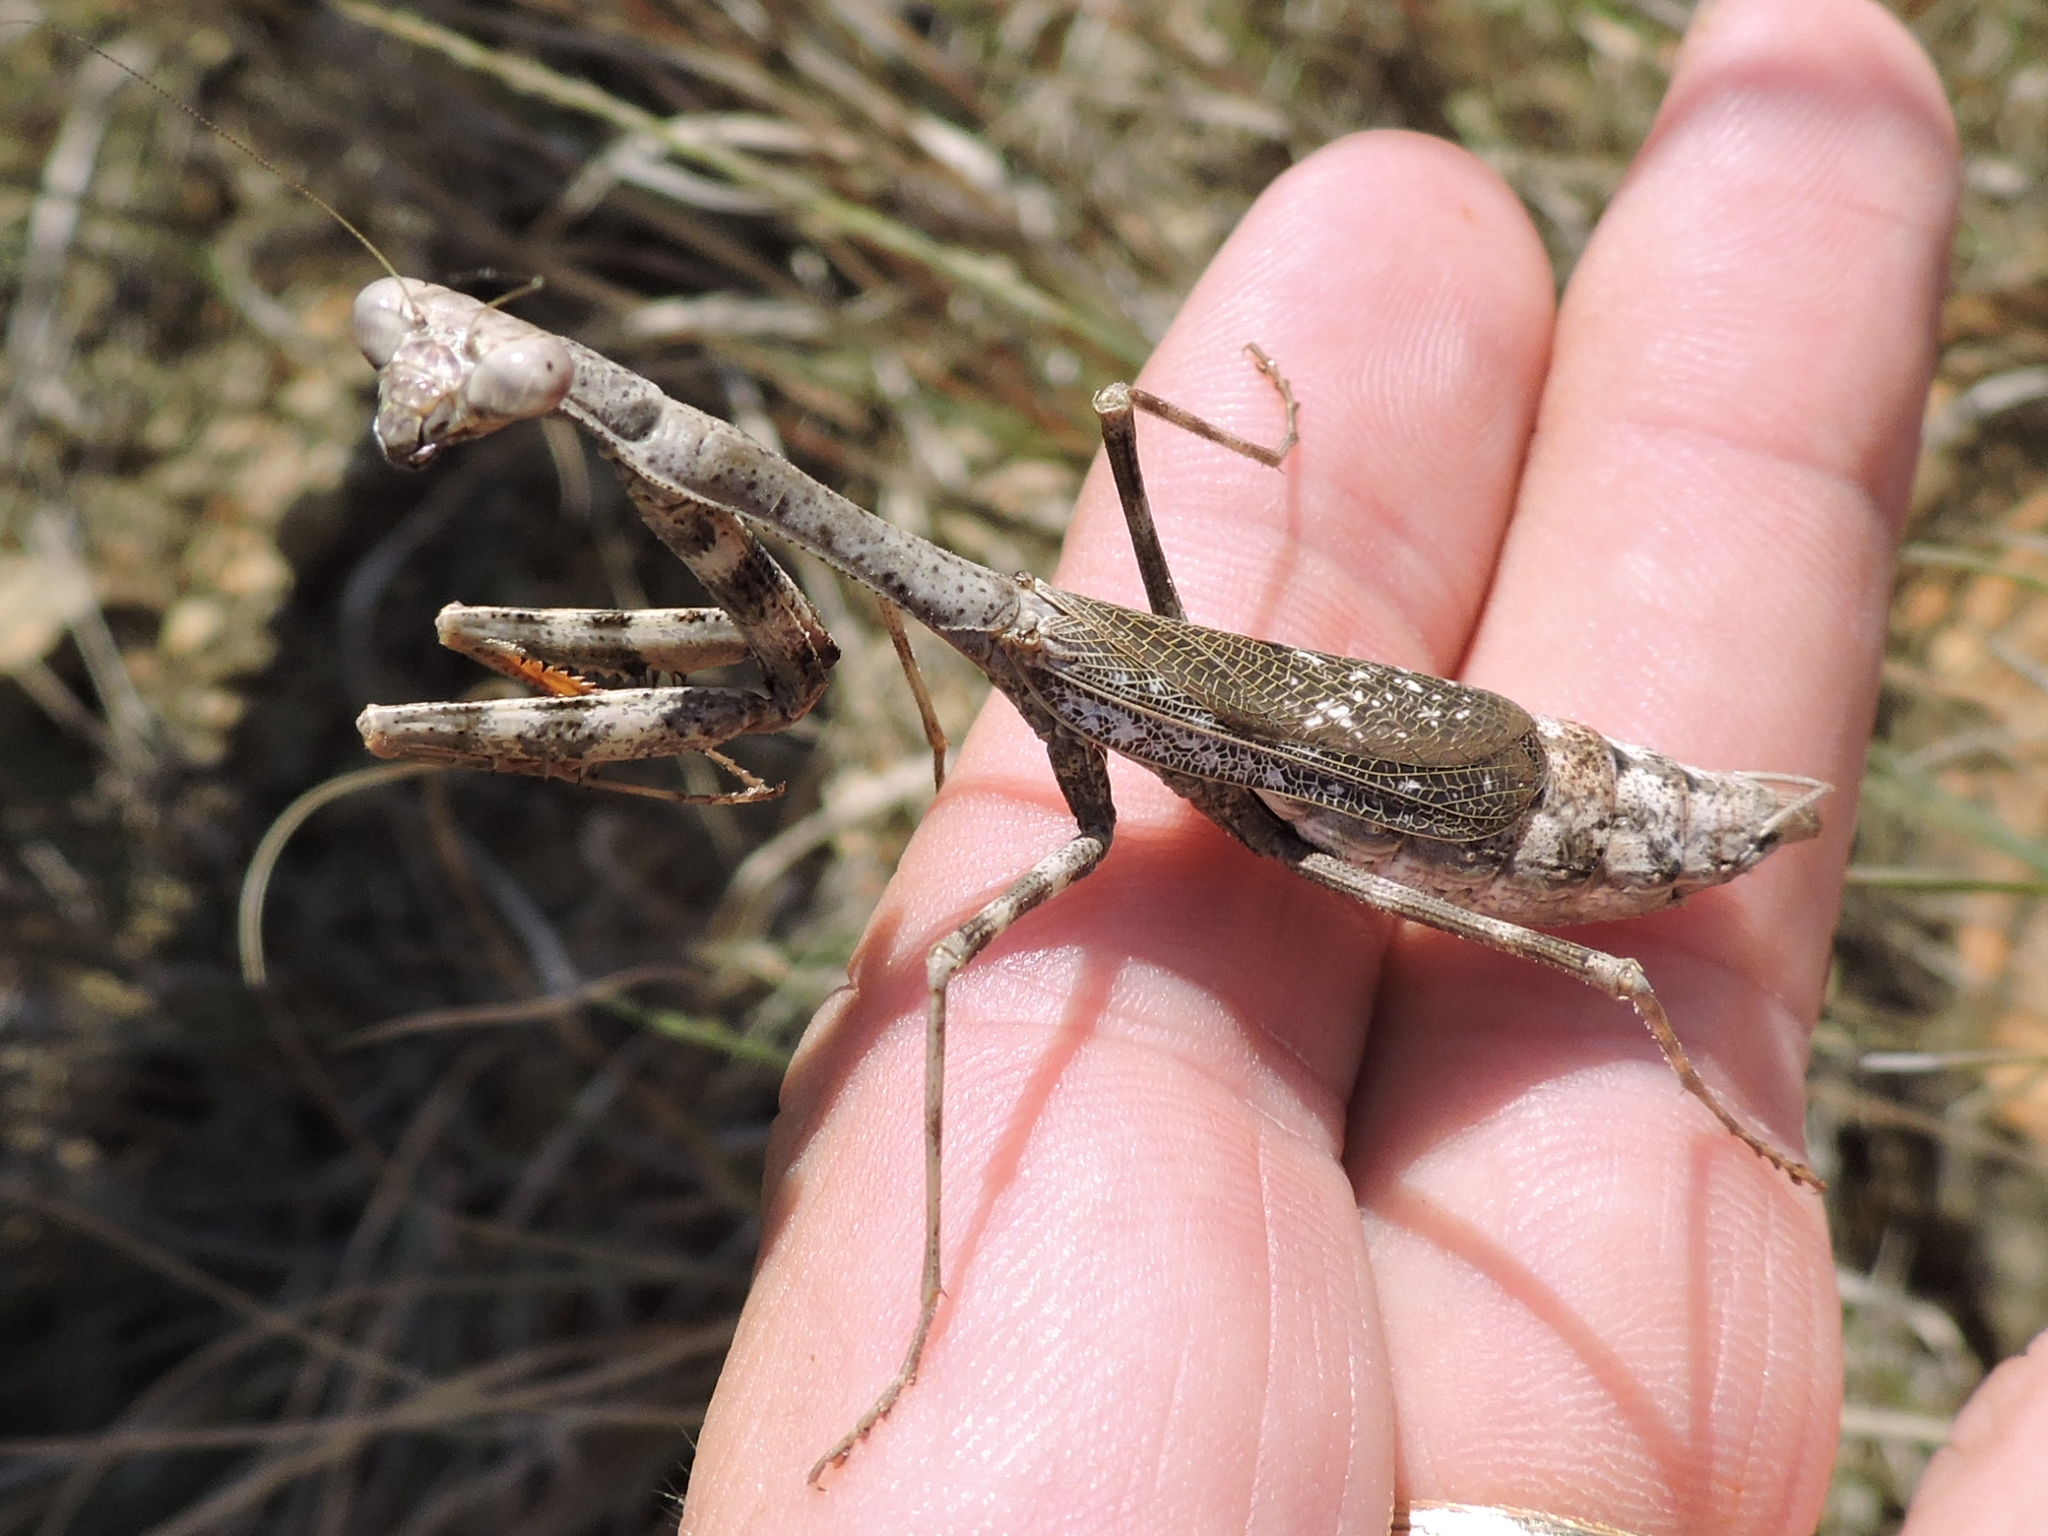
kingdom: Animalia
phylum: Arthropoda
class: Insecta
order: Mantodea
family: Mantidae
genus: Stagmomantis
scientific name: Stagmomantis carolina
